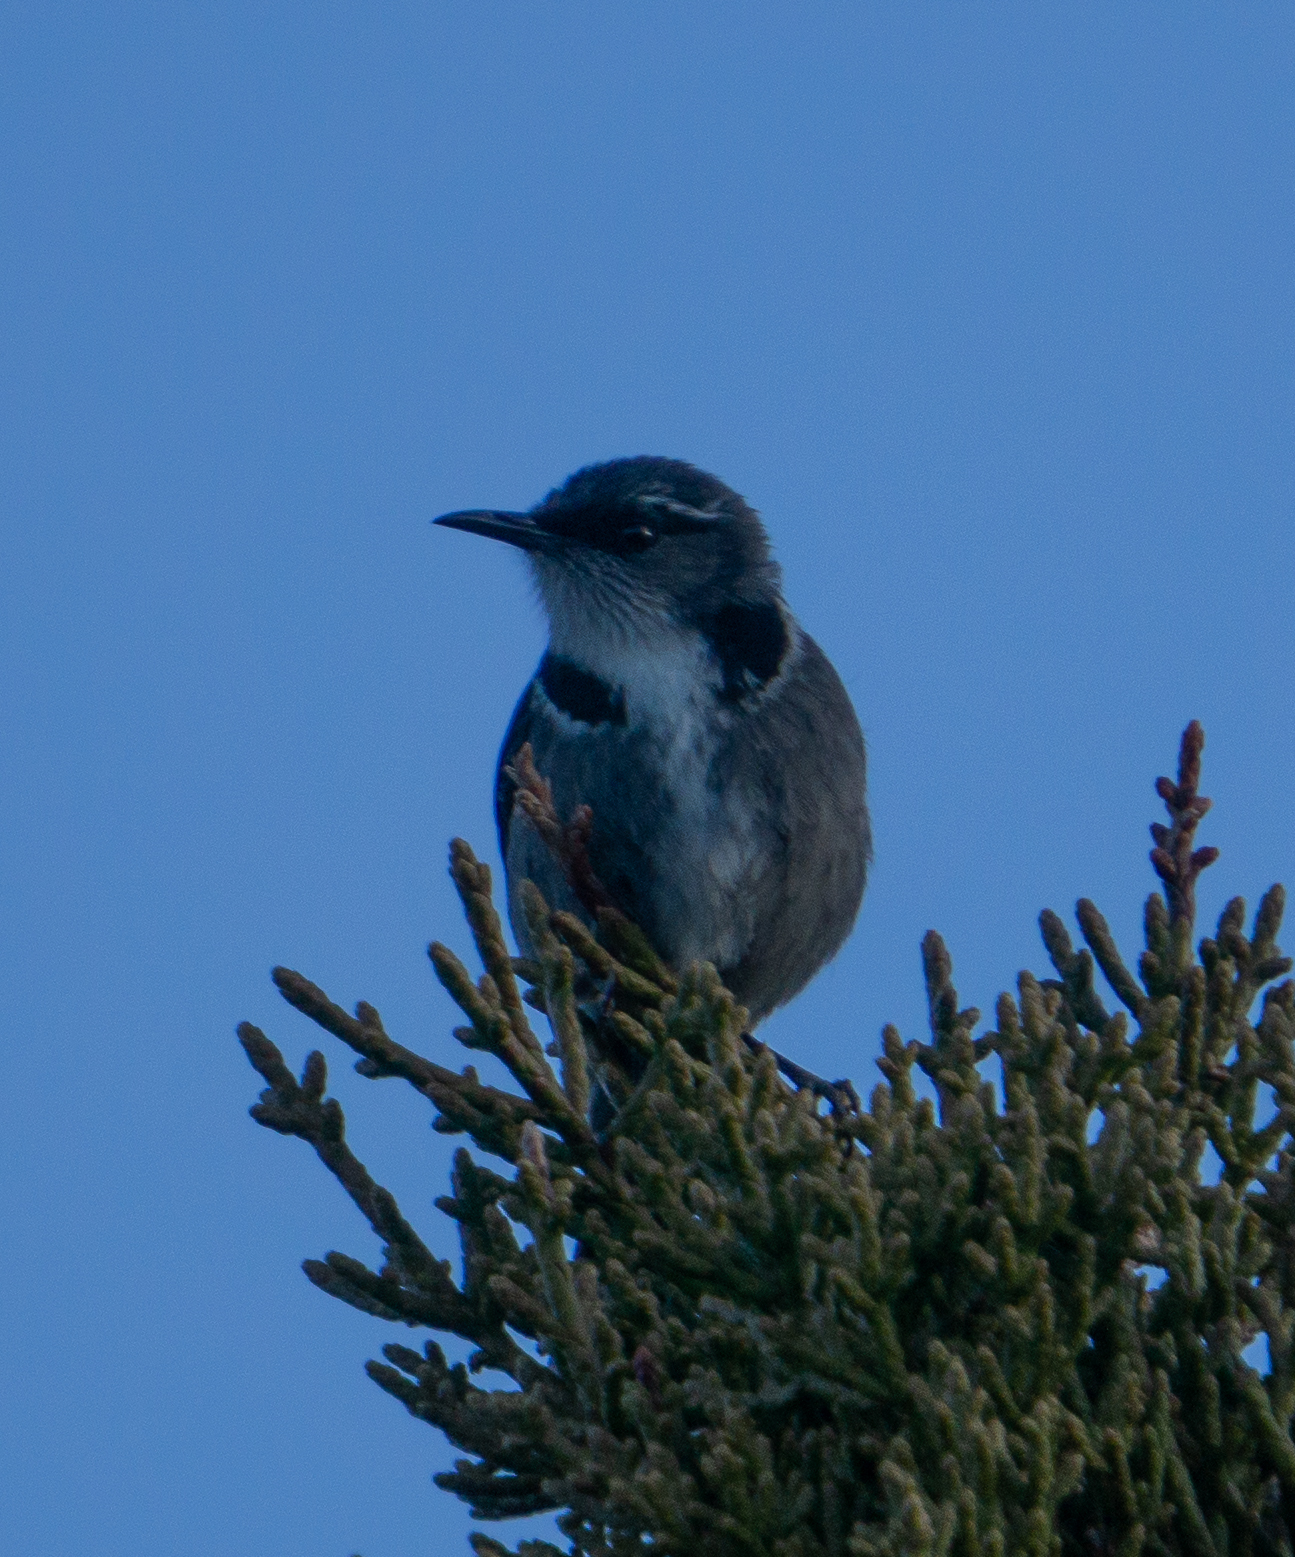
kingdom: Animalia
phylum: Chordata
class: Aves
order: Passeriformes
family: Meliphagidae
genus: Phylidonyris
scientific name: Phylidonyris pyrrhopterus
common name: Crescent honeyeater
